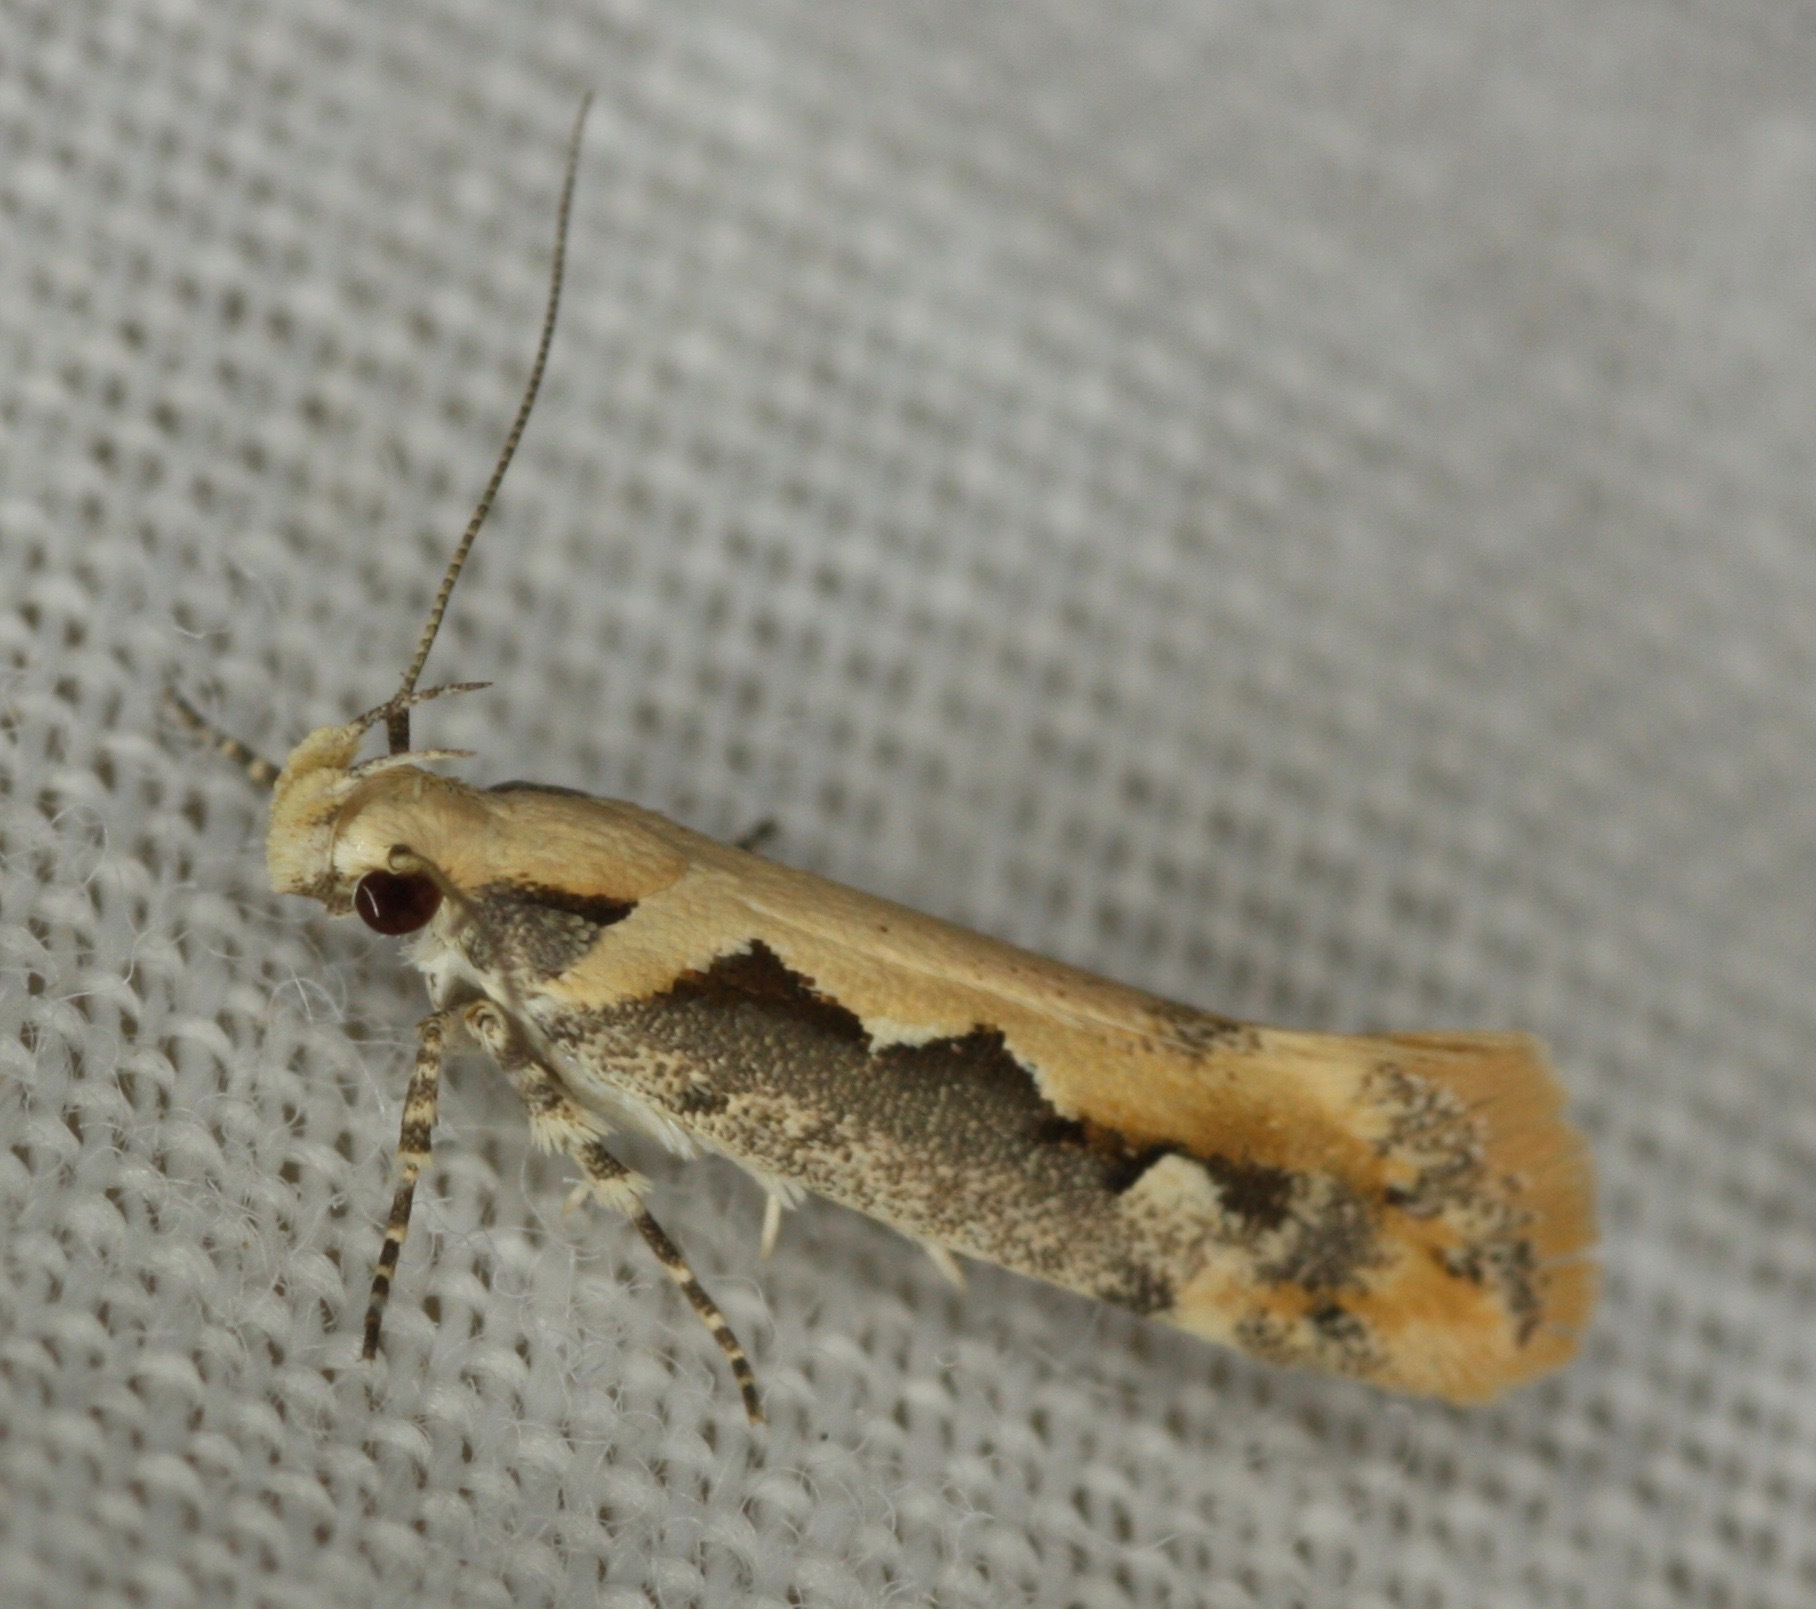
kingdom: Animalia
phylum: Arthropoda
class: Insecta
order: Lepidoptera
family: Gelechiidae
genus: Ornativalva
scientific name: Ornativalva erubescens
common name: Moth
